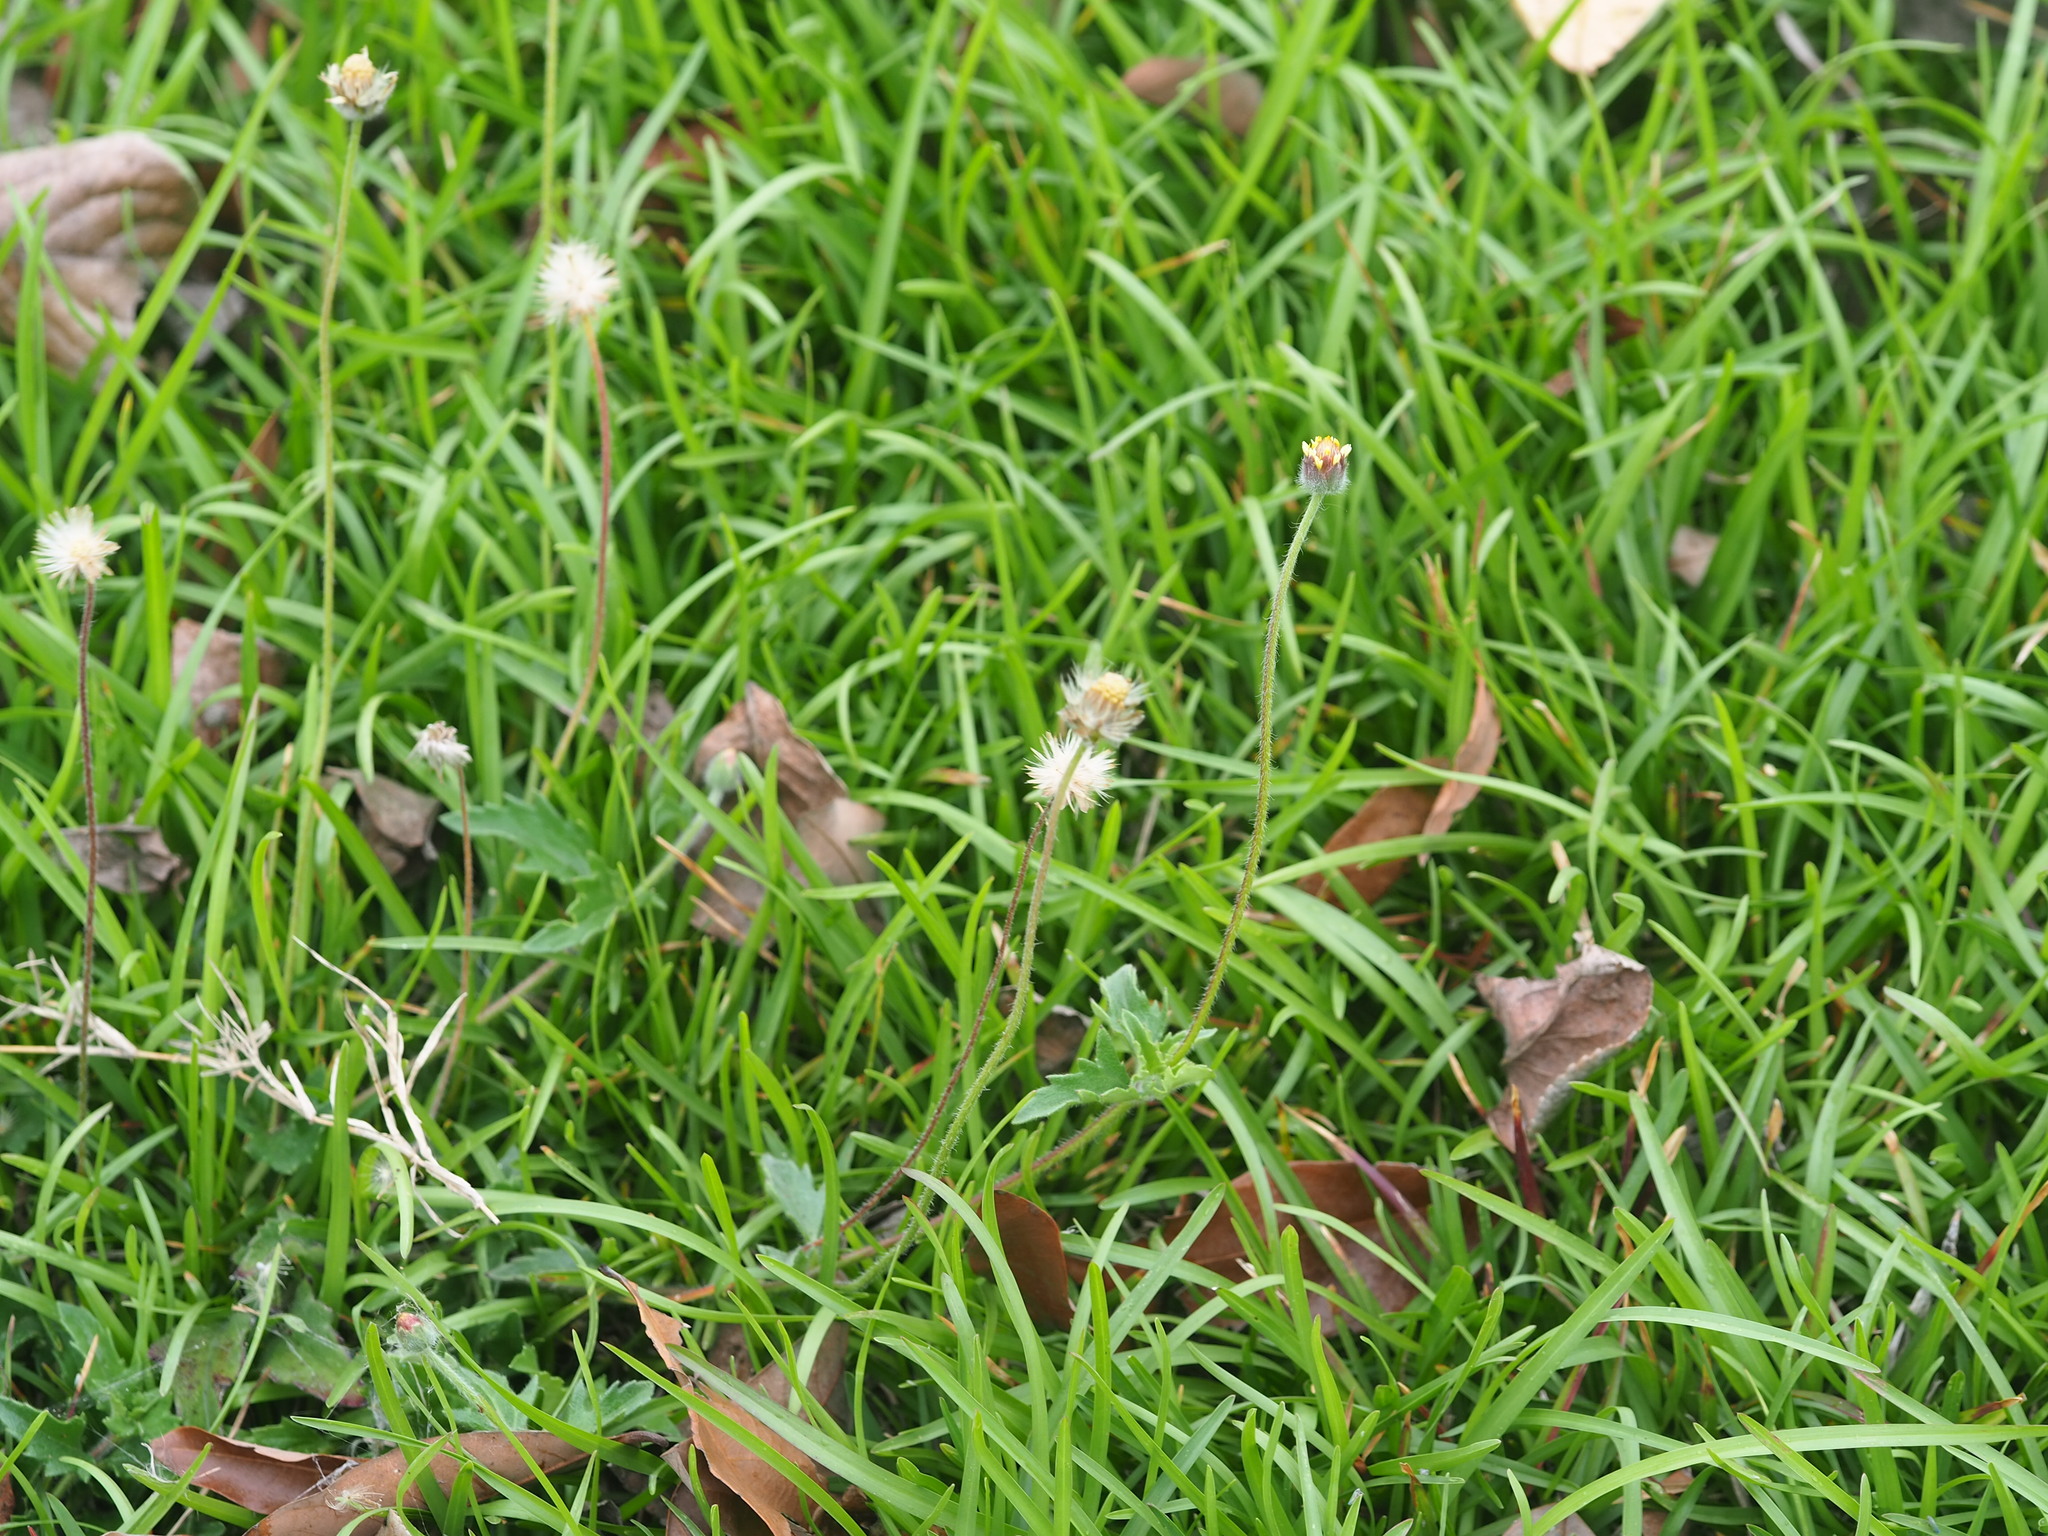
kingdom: Plantae
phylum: Tracheophyta
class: Magnoliopsida
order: Asterales
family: Asteraceae
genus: Tridax
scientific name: Tridax procumbens
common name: Coatbuttons
